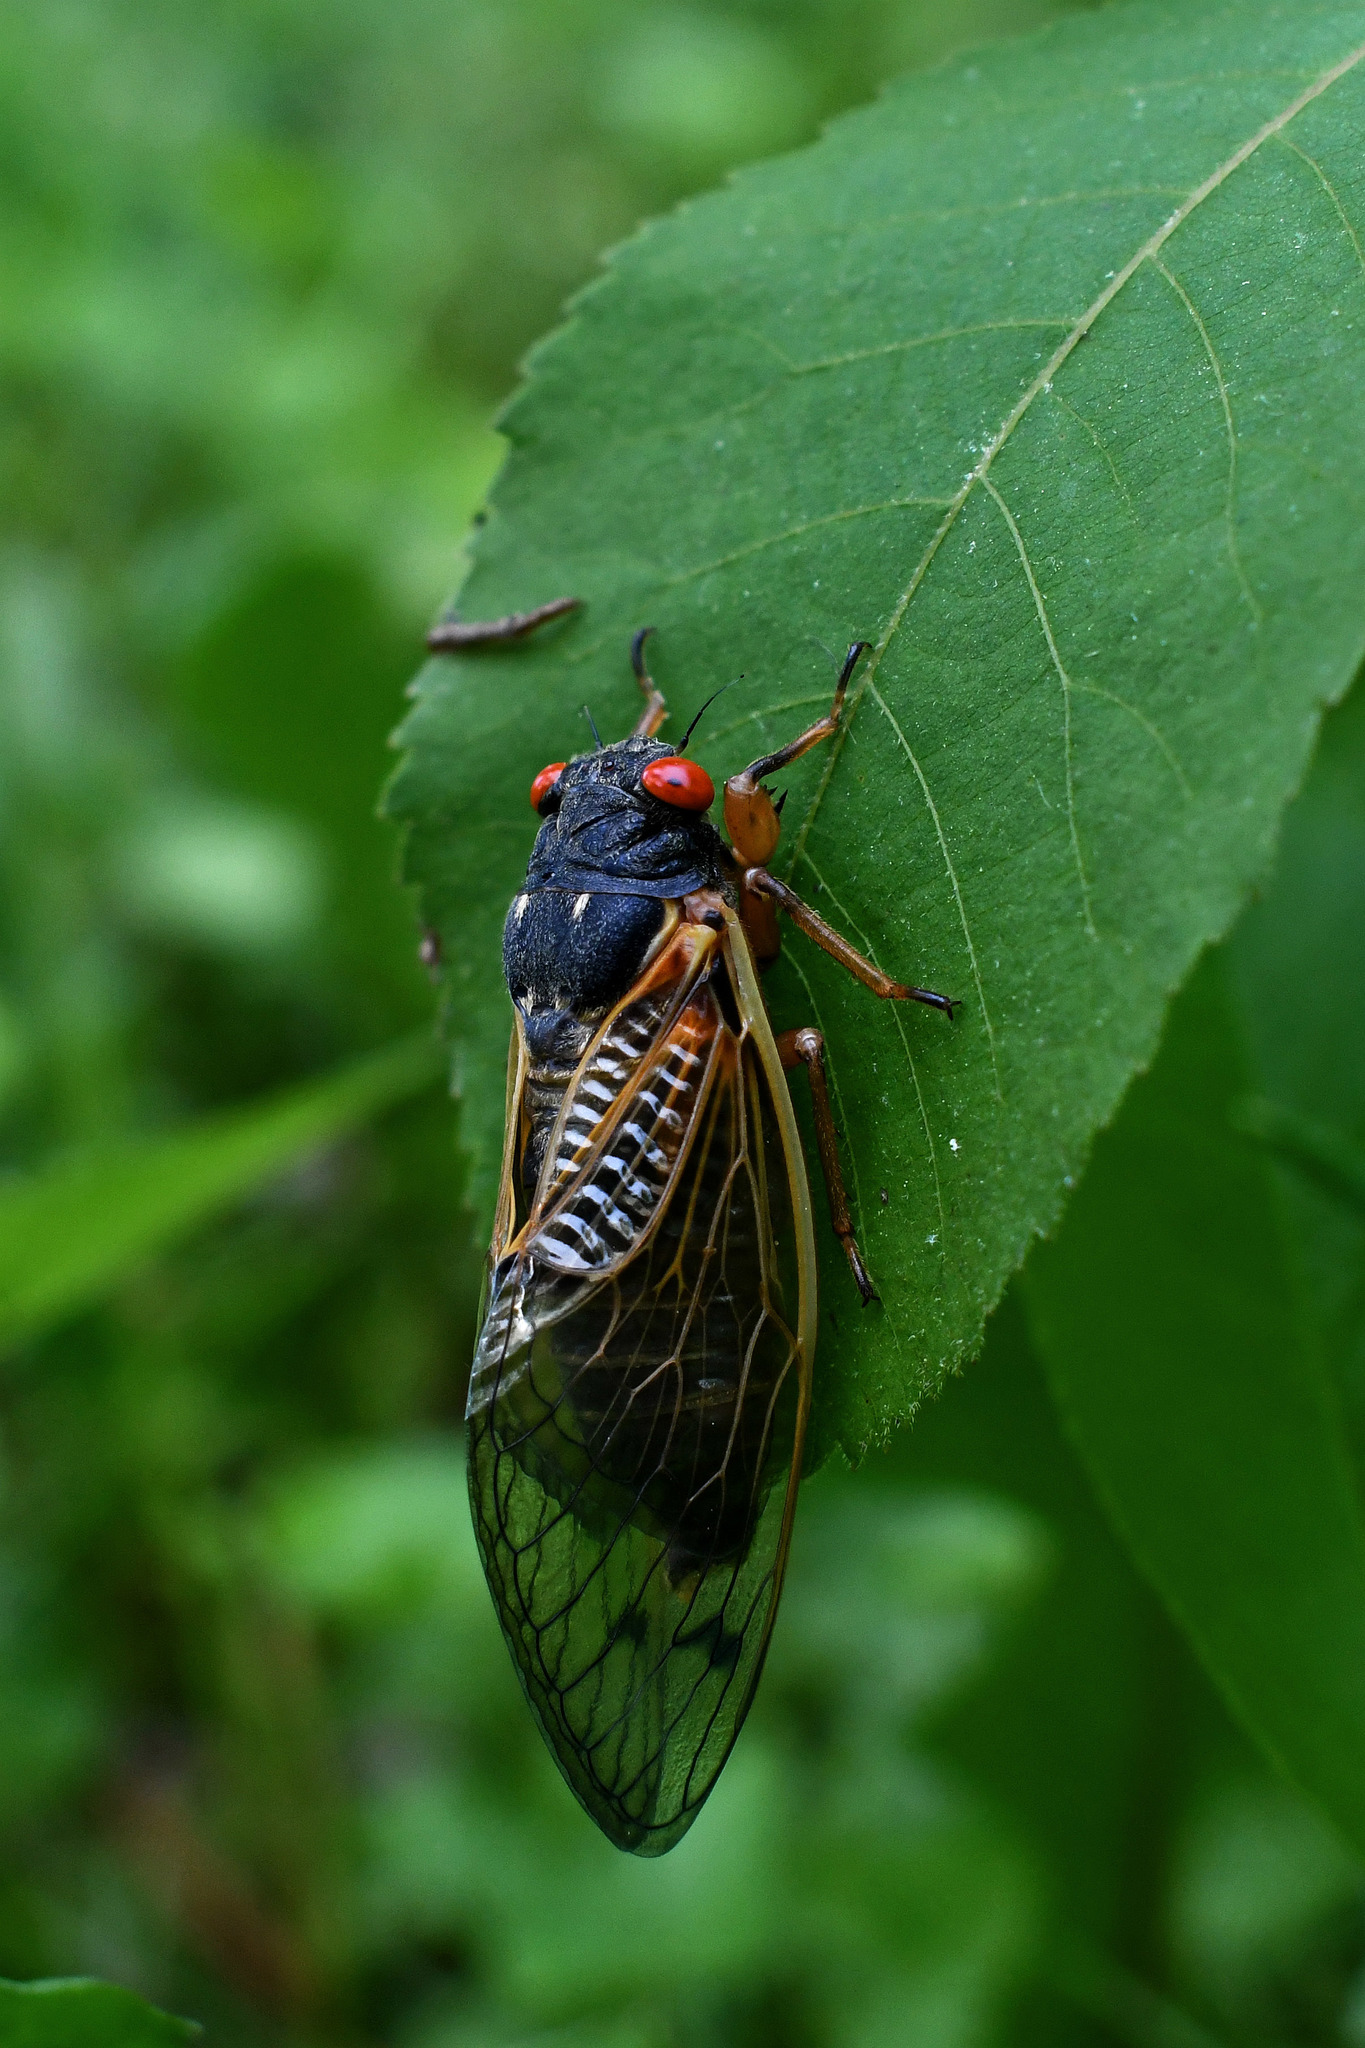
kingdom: Animalia
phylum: Arthropoda
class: Insecta
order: Hemiptera
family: Cicadidae
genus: Magicicada
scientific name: Magicicada
